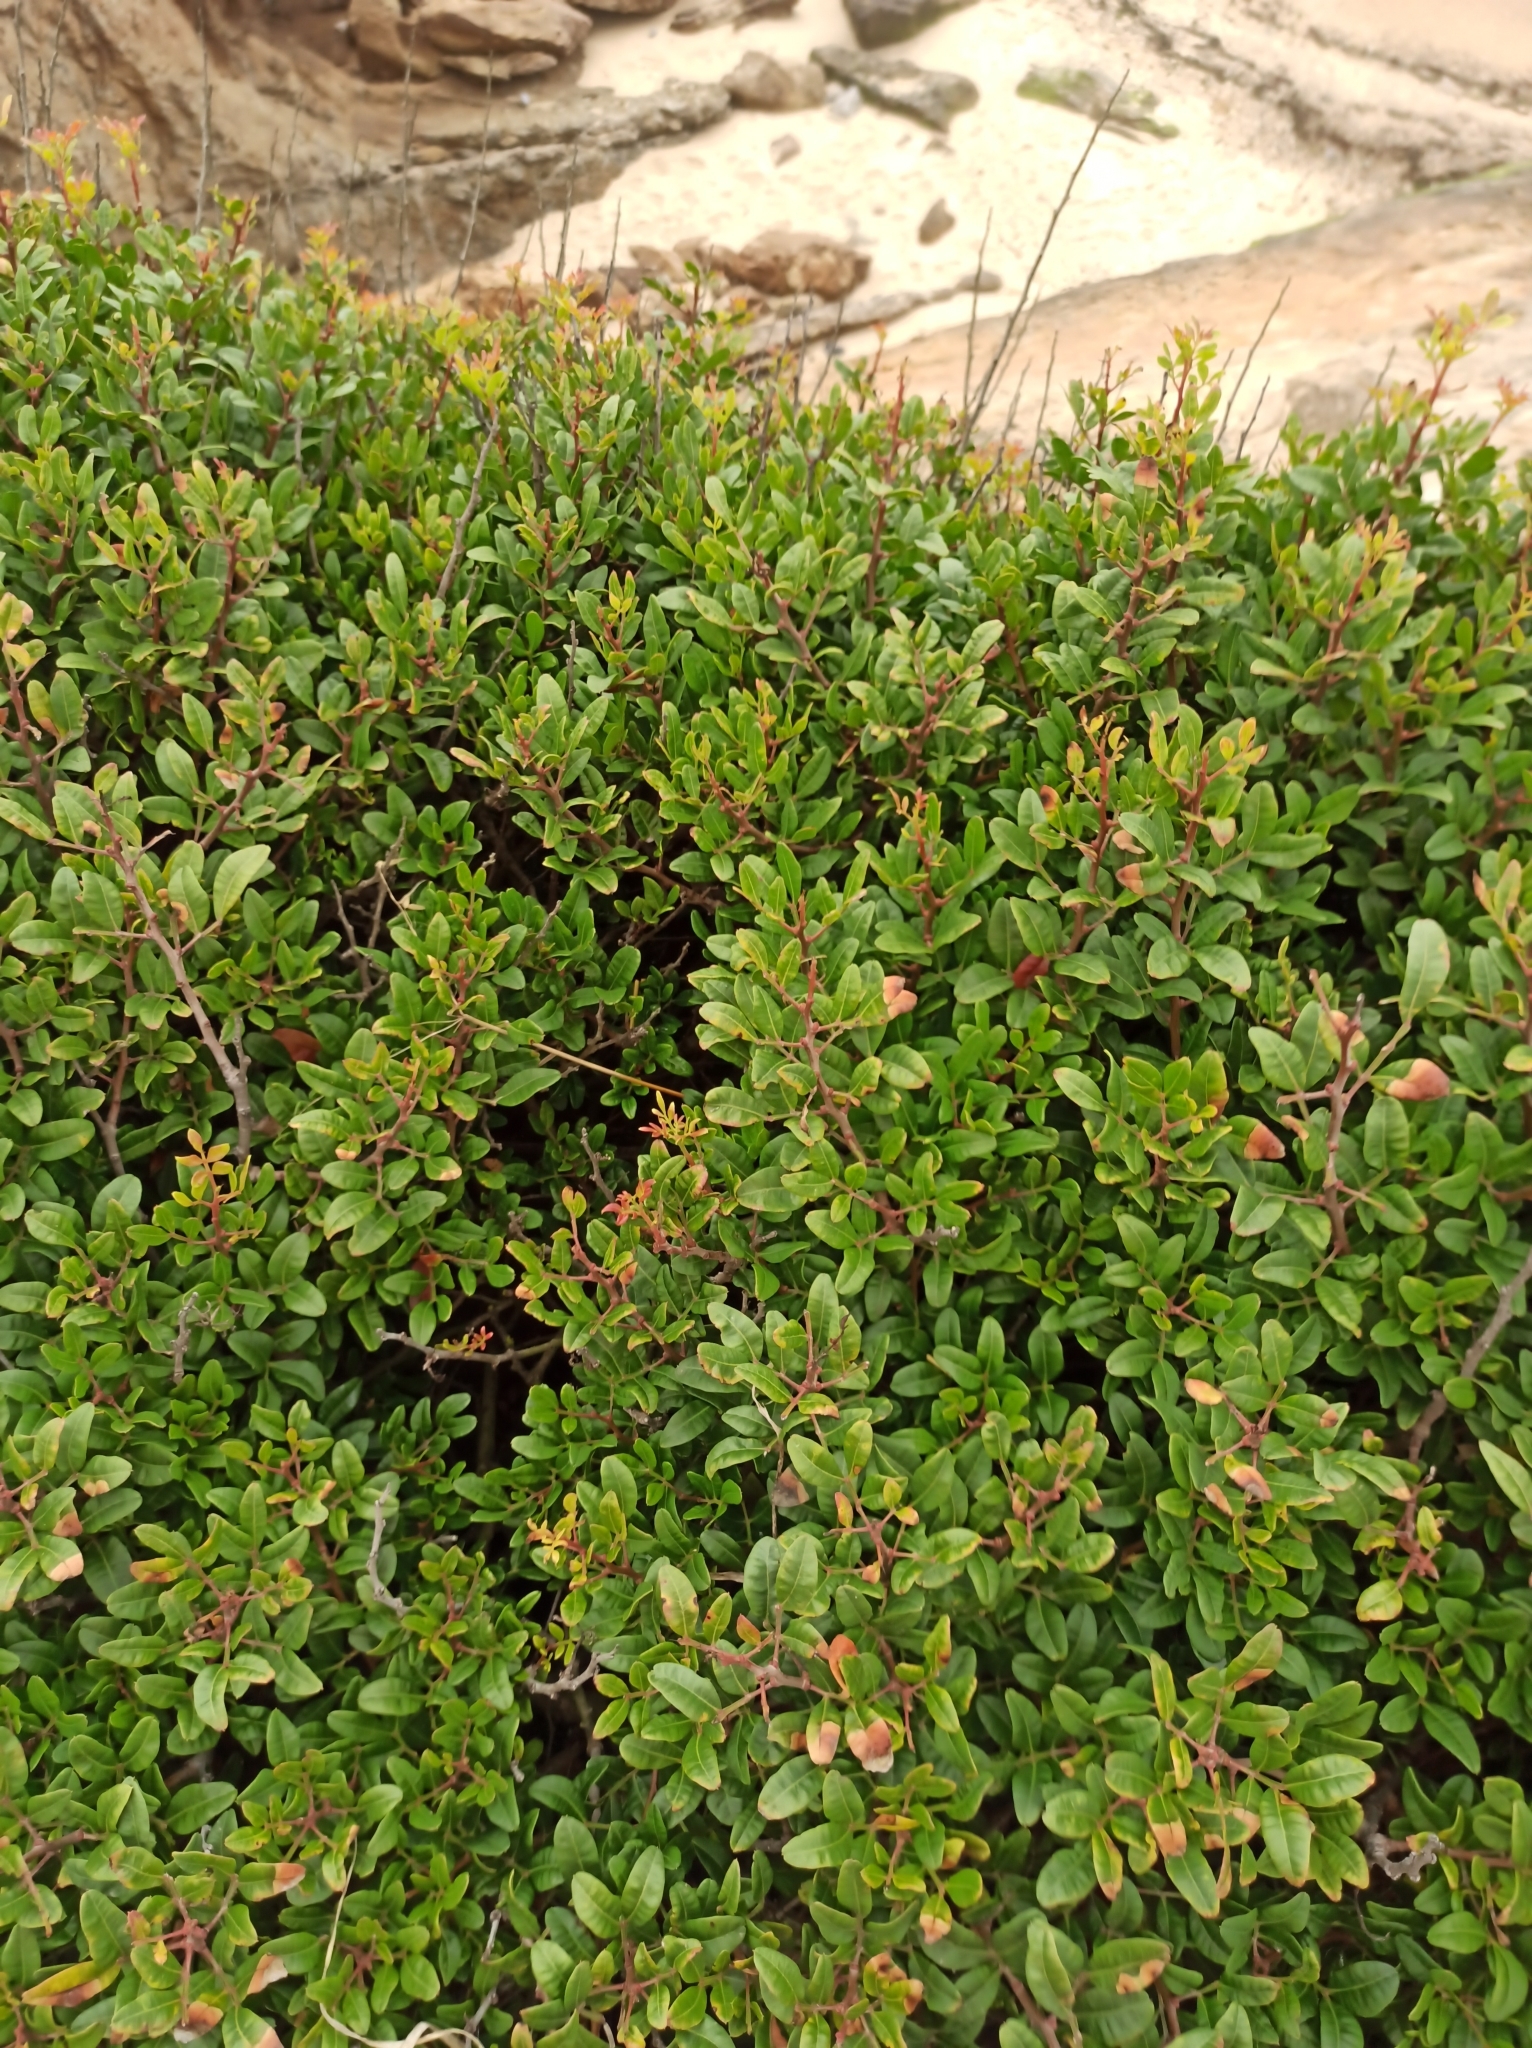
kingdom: Plantae
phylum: Tracheophyta
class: Magnoliopsida
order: Sapindales
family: Anacardiaceae
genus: Pistacia
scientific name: Pistacia lentiscus
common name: Lentisk
